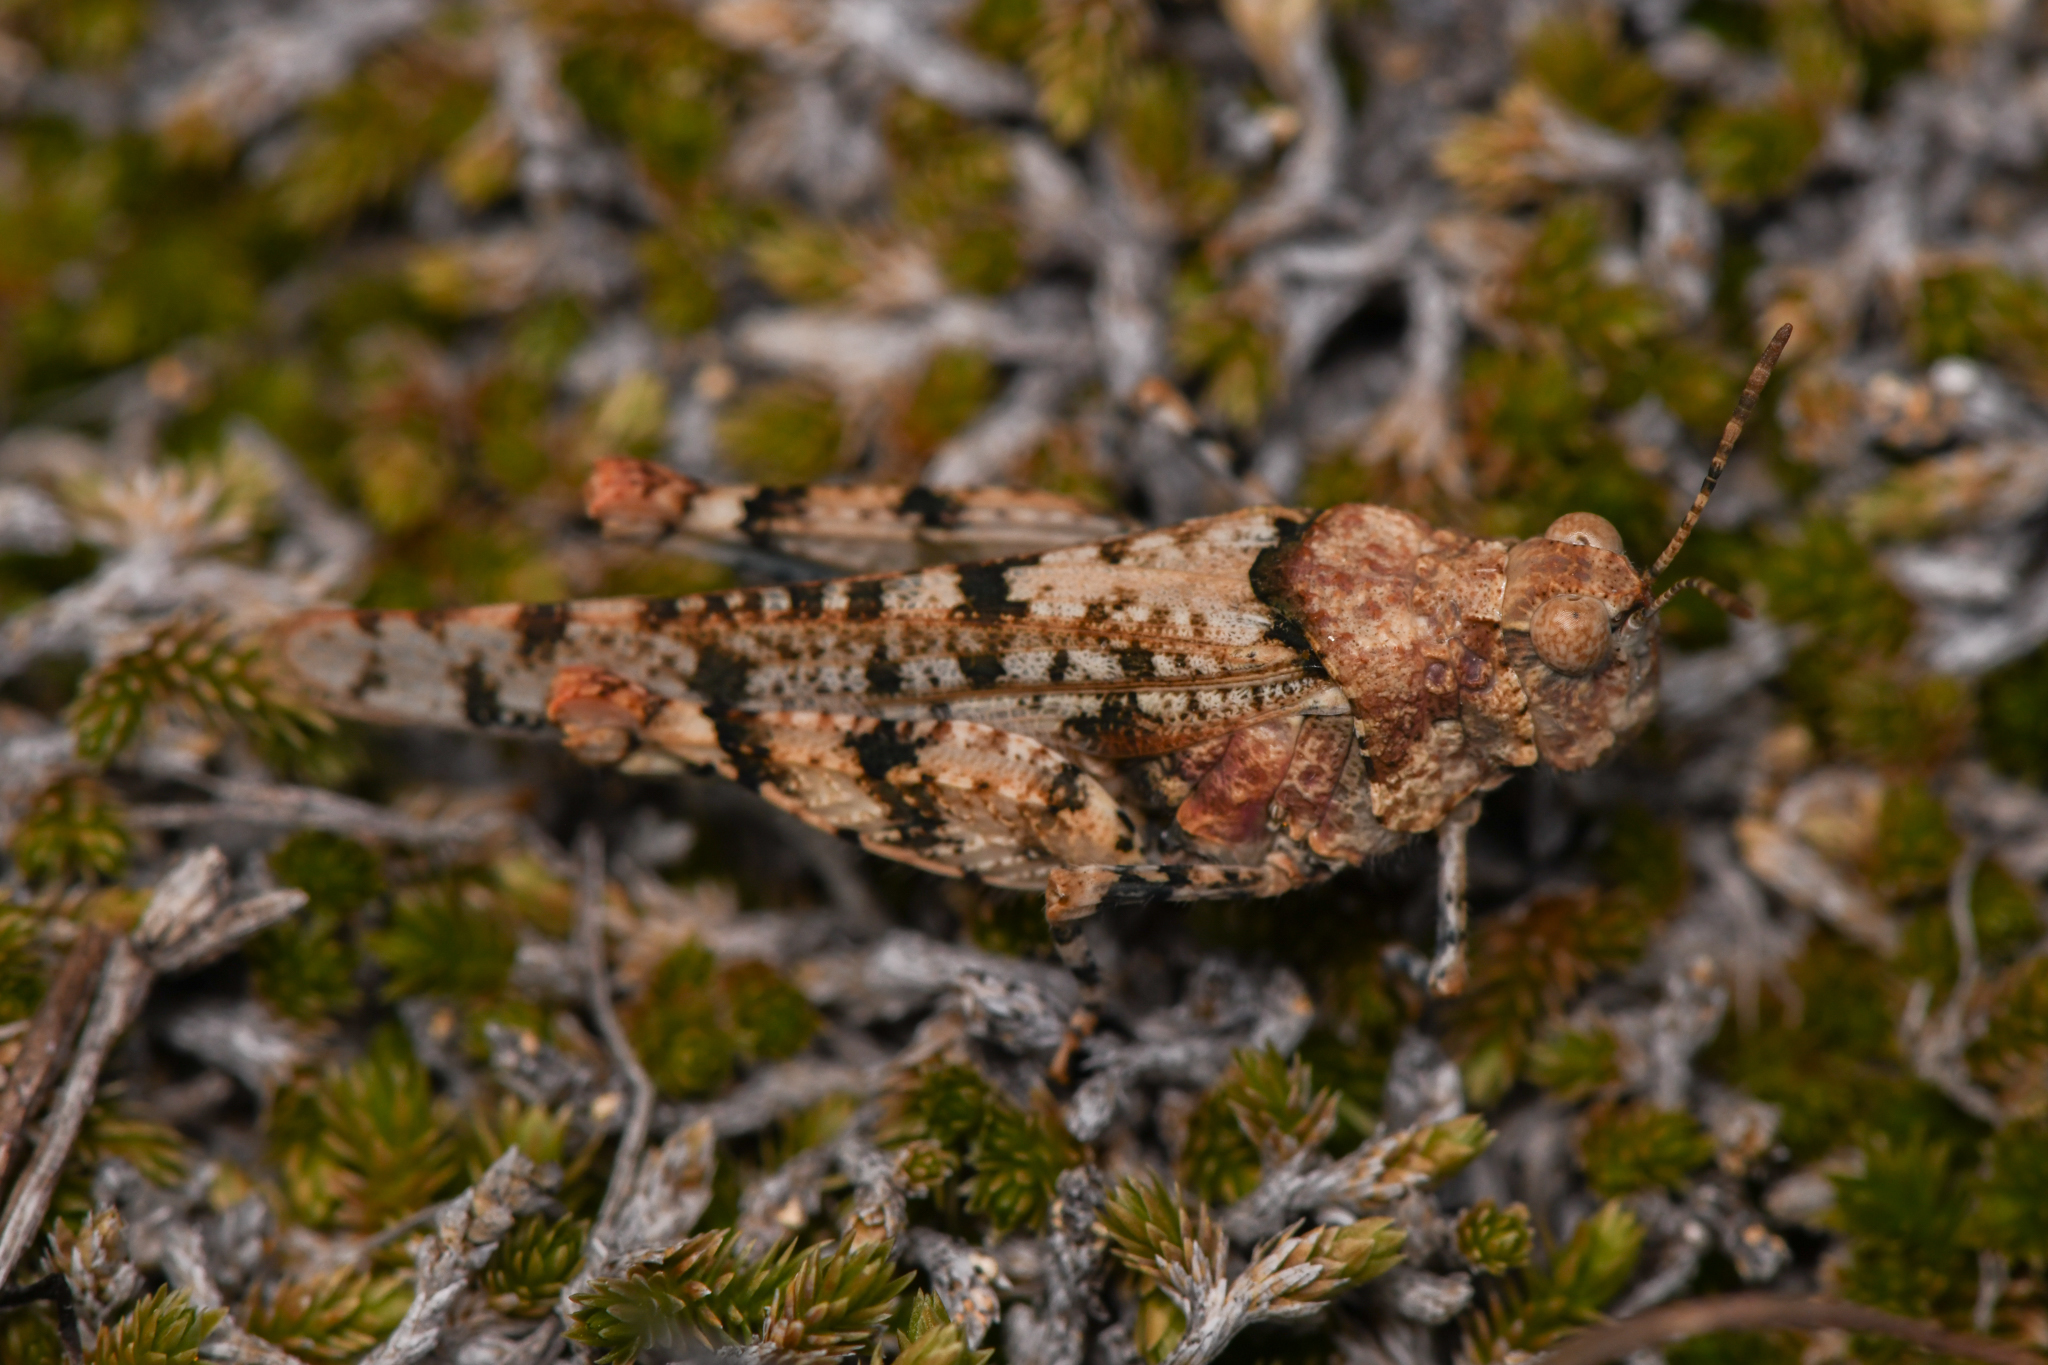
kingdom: Animalia
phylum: Arthropoda
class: Insecta
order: Orthoptera
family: Acrididae
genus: Cibolacris
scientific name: Cibolacris parviceps
